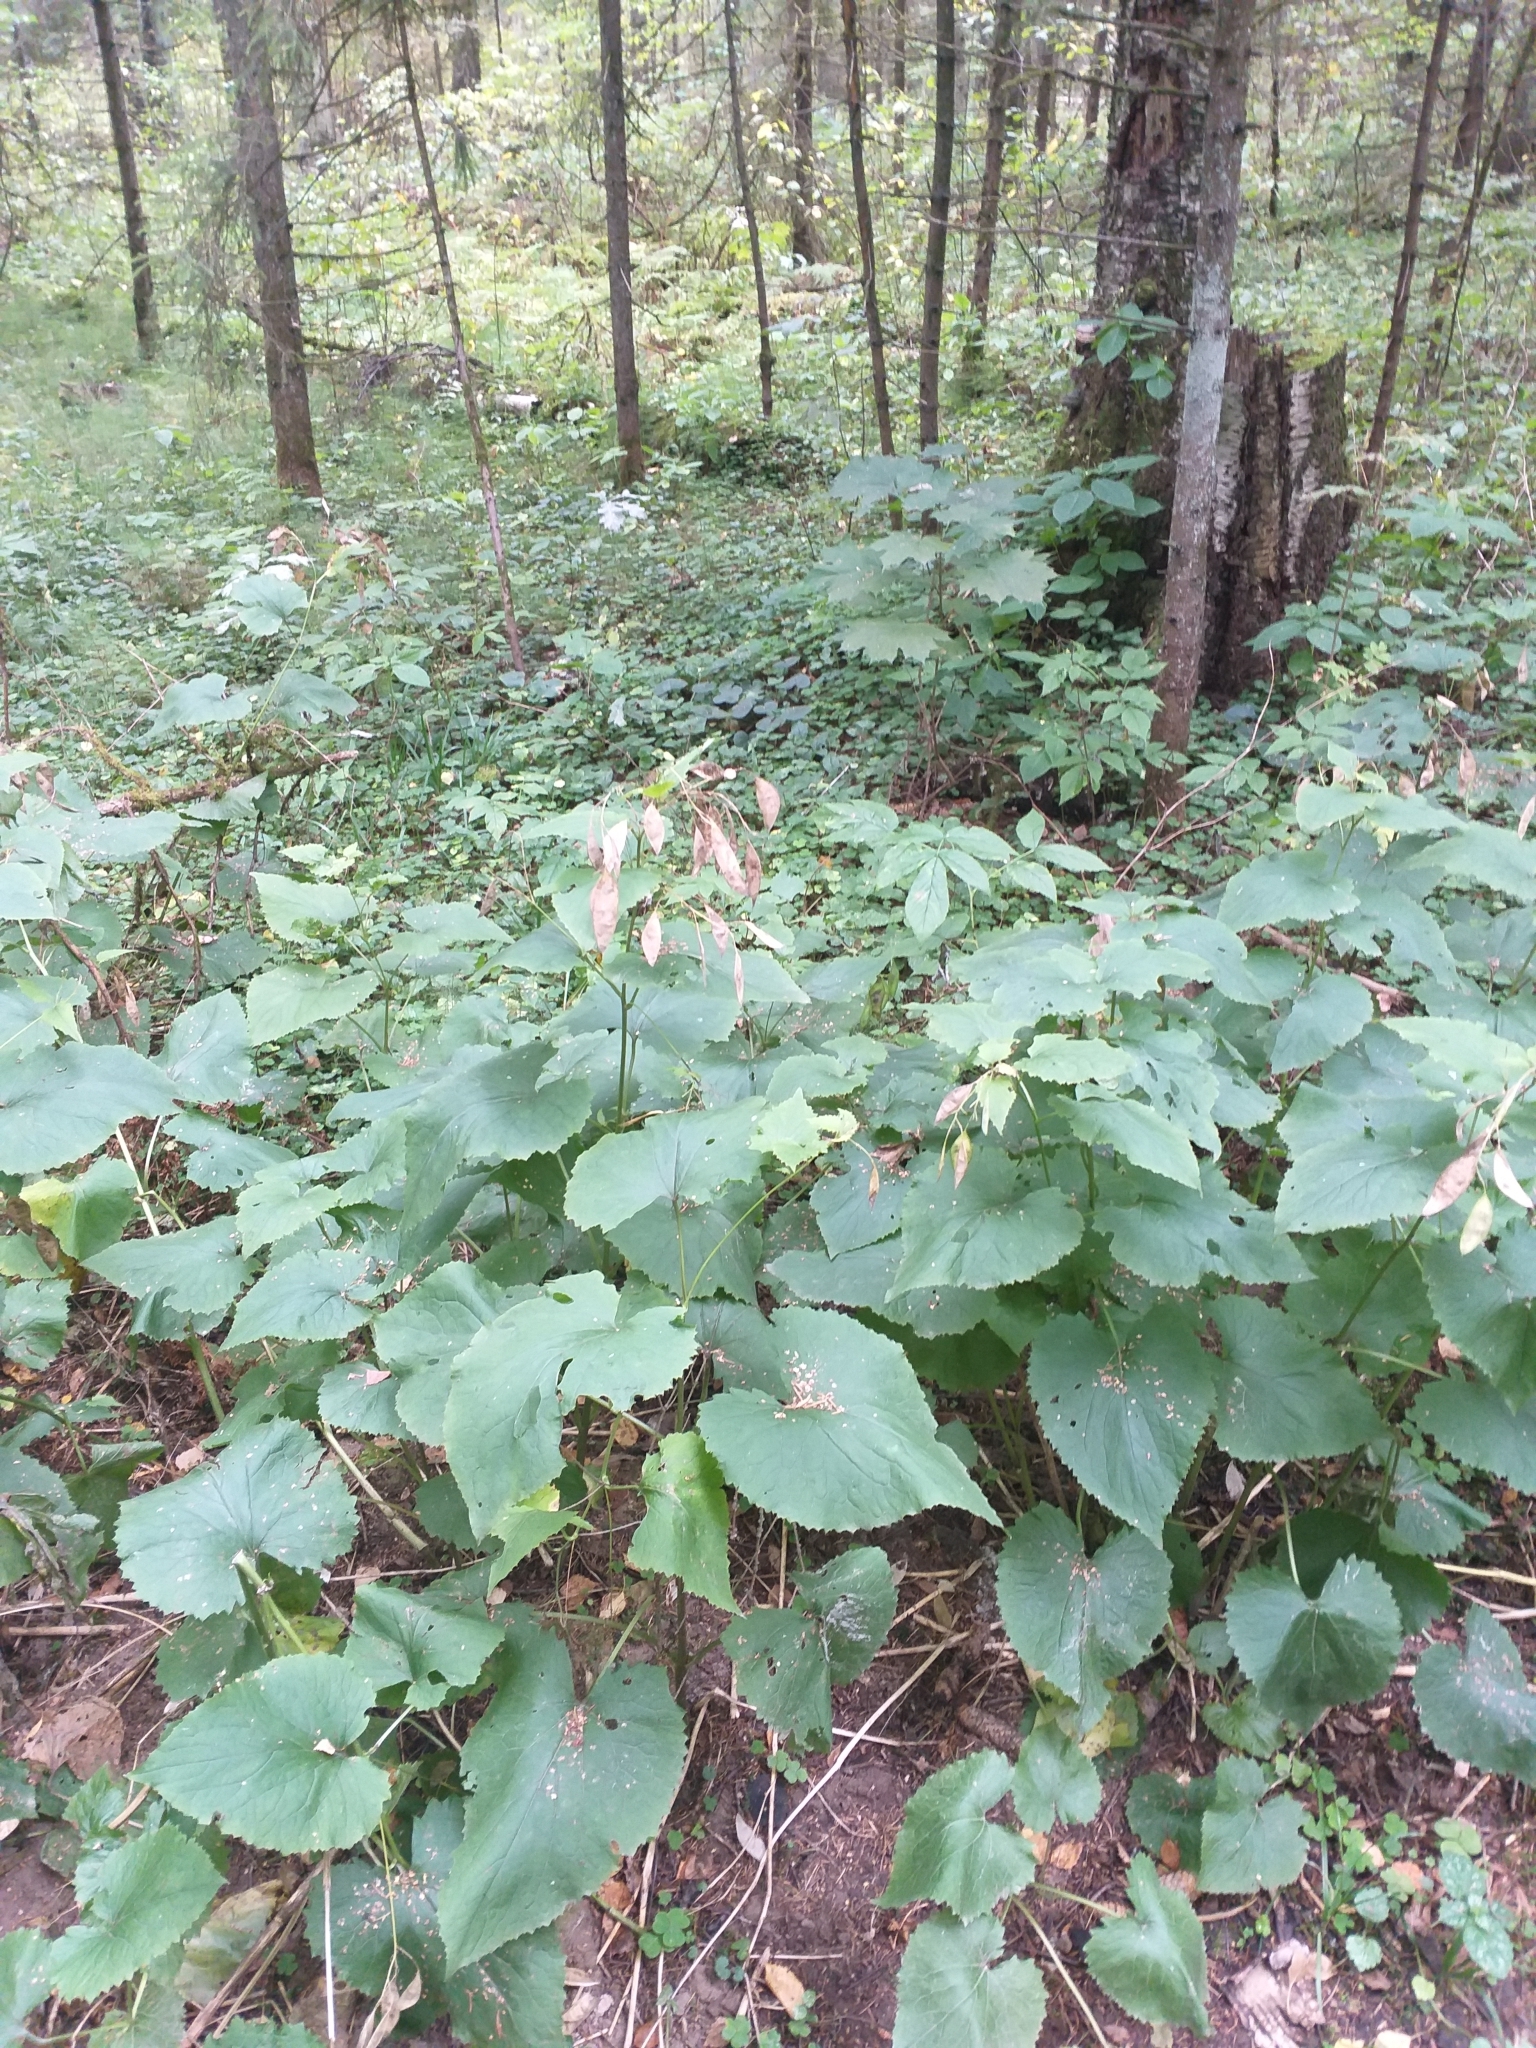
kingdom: Plantae
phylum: Tracheophyta
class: Magnoliopsida
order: Brassicales
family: Brassicaceae
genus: Lunaria
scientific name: Lunaria rediviva
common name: Perennial honesty
